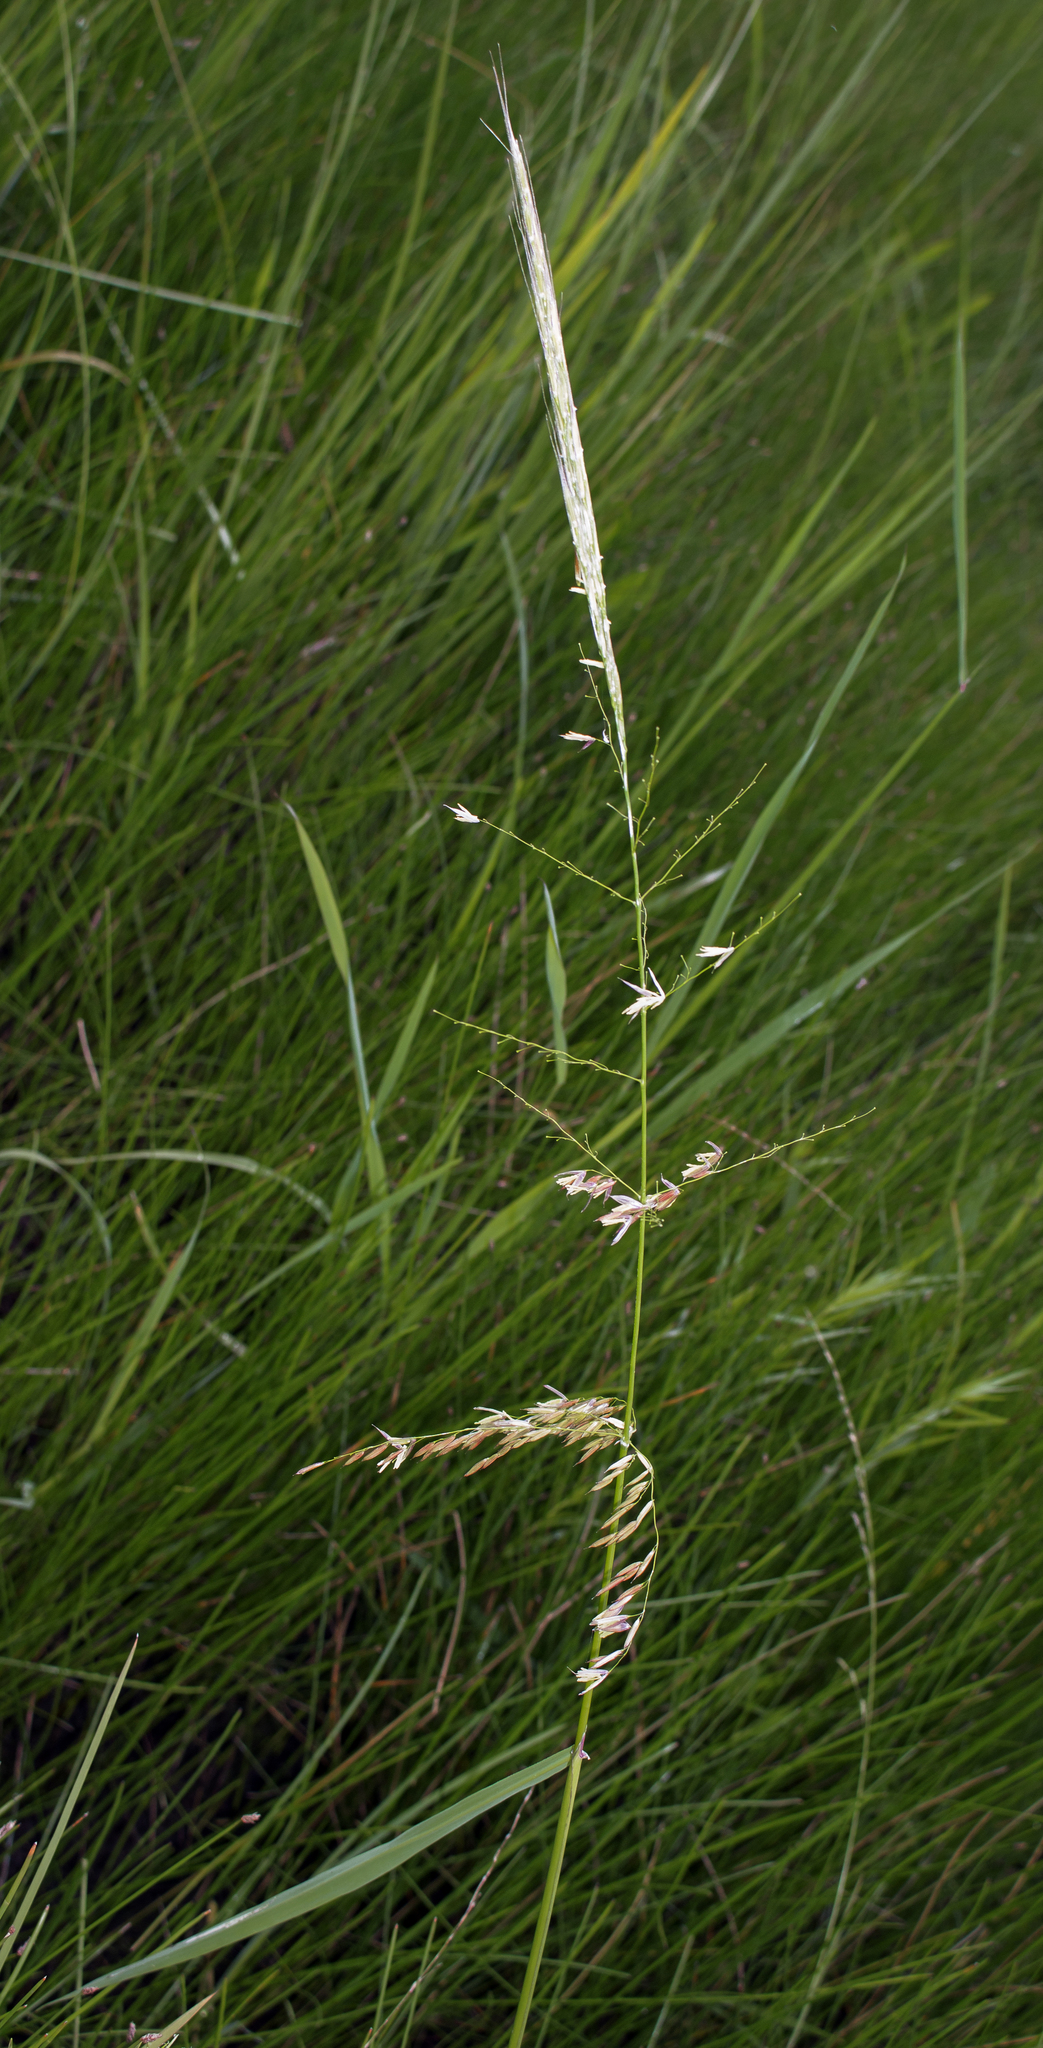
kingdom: Plantae
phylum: Tracheophyta
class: Liliopsida
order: Poales
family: Poaceae
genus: Zizania
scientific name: Zizania aquatica
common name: Annual wildrice
